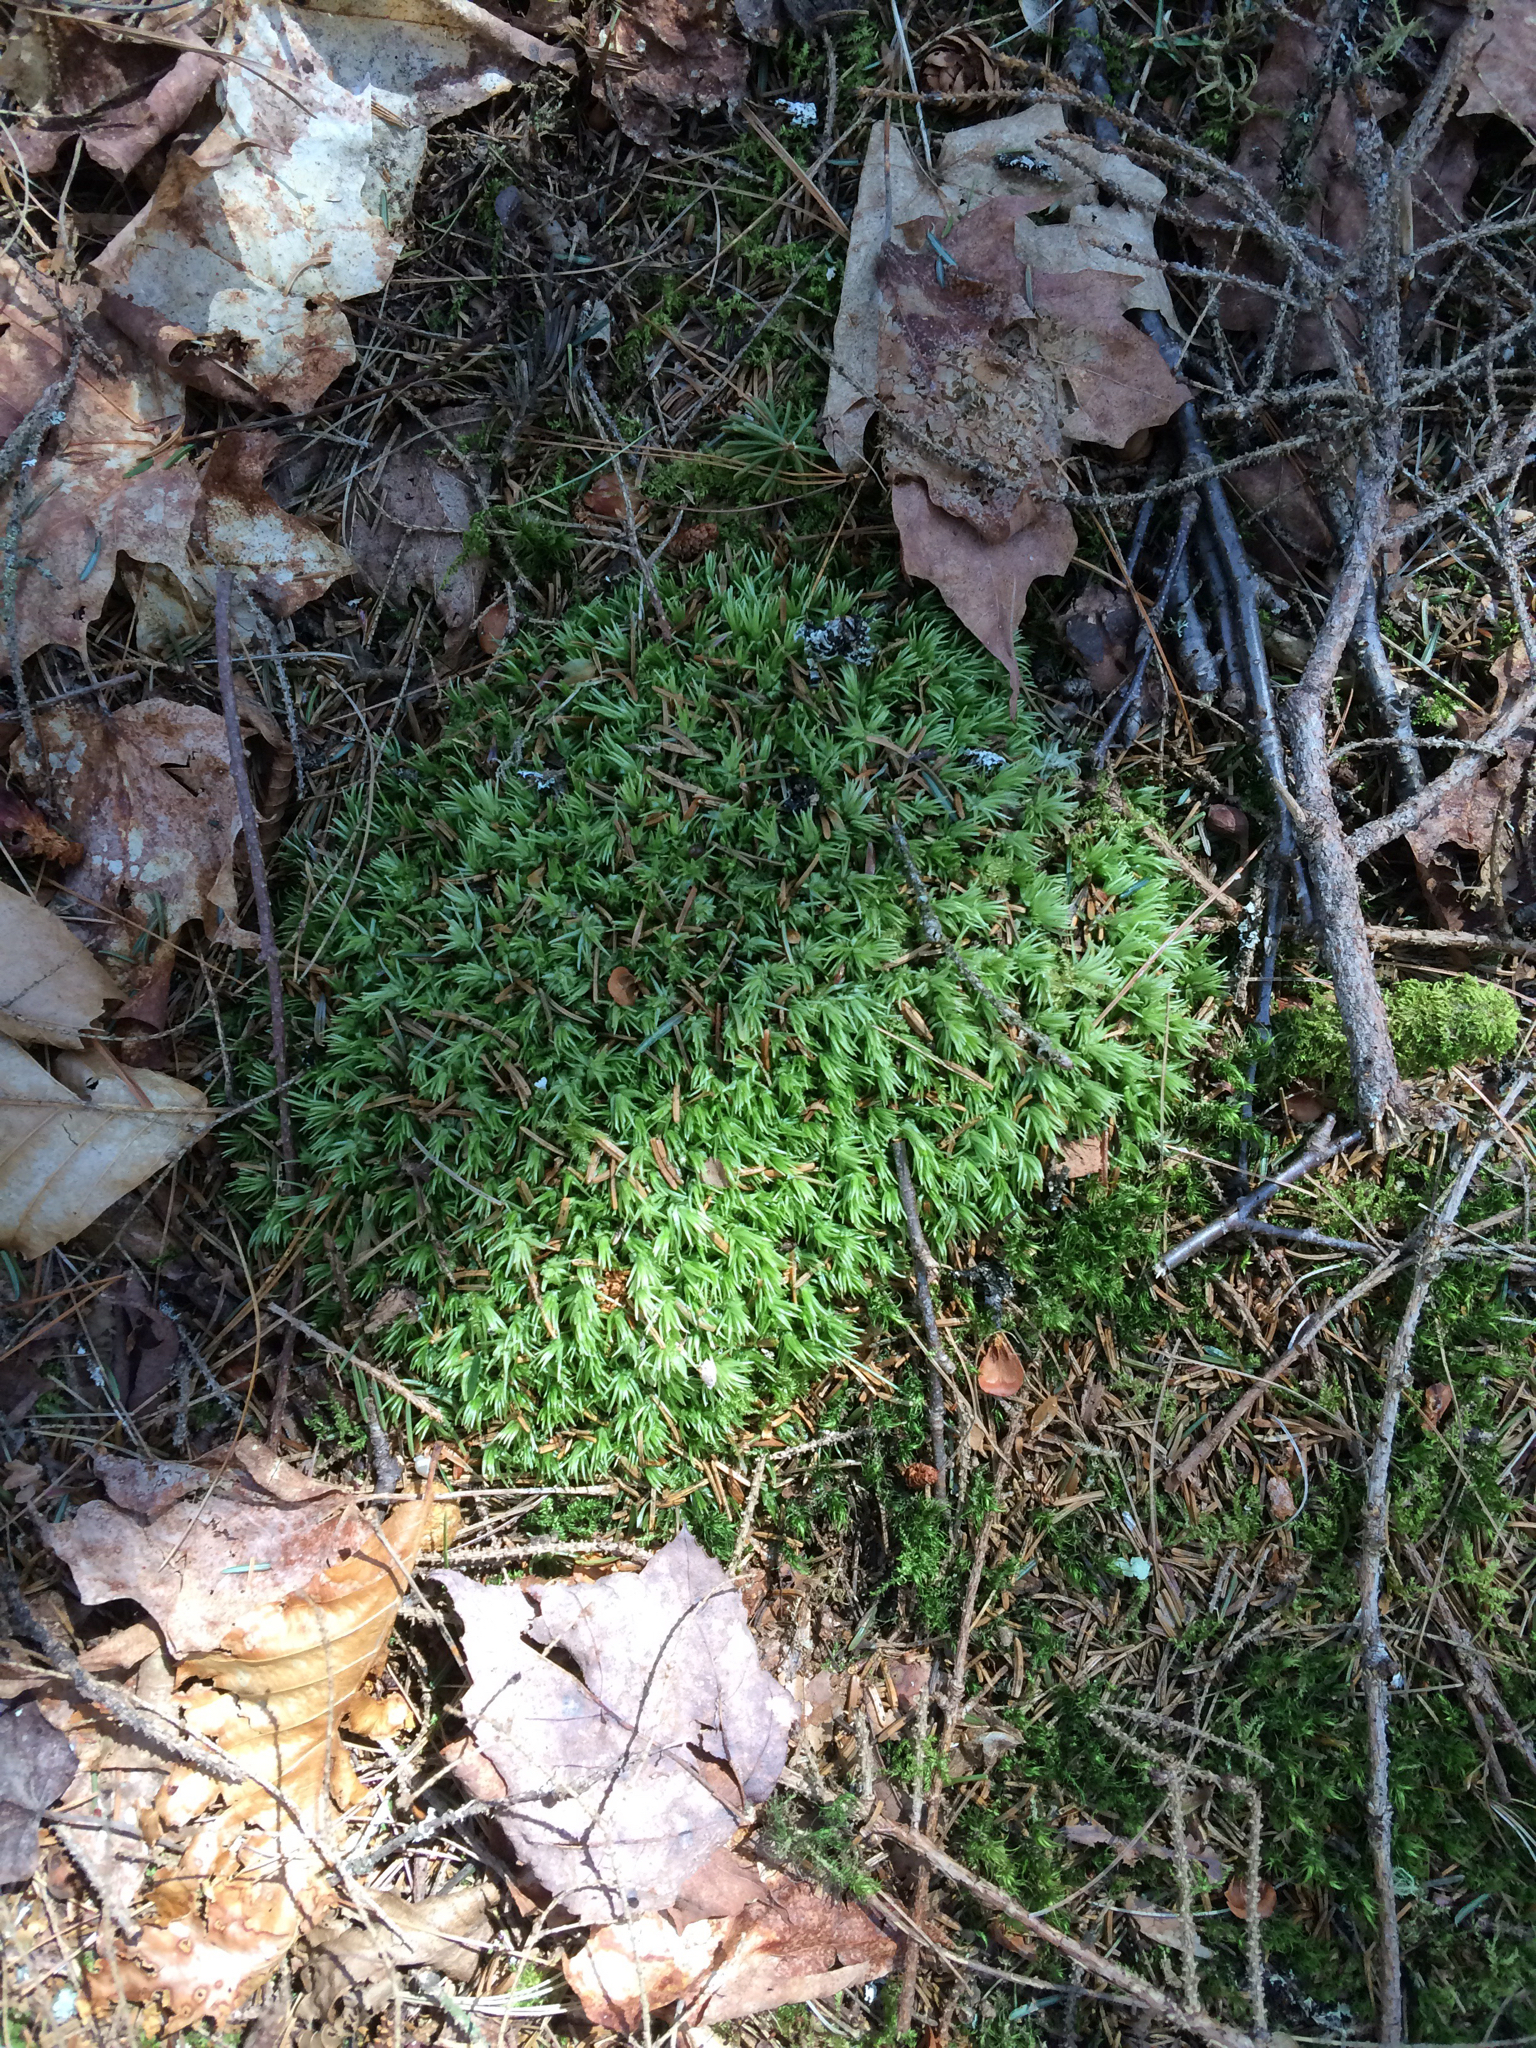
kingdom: Plantae
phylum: Bryophyta
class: Bryopsida
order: Dicranales
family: Leucobryaceae
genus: Leucobryum
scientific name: Leucobryum glaucum
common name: Large white-moss
